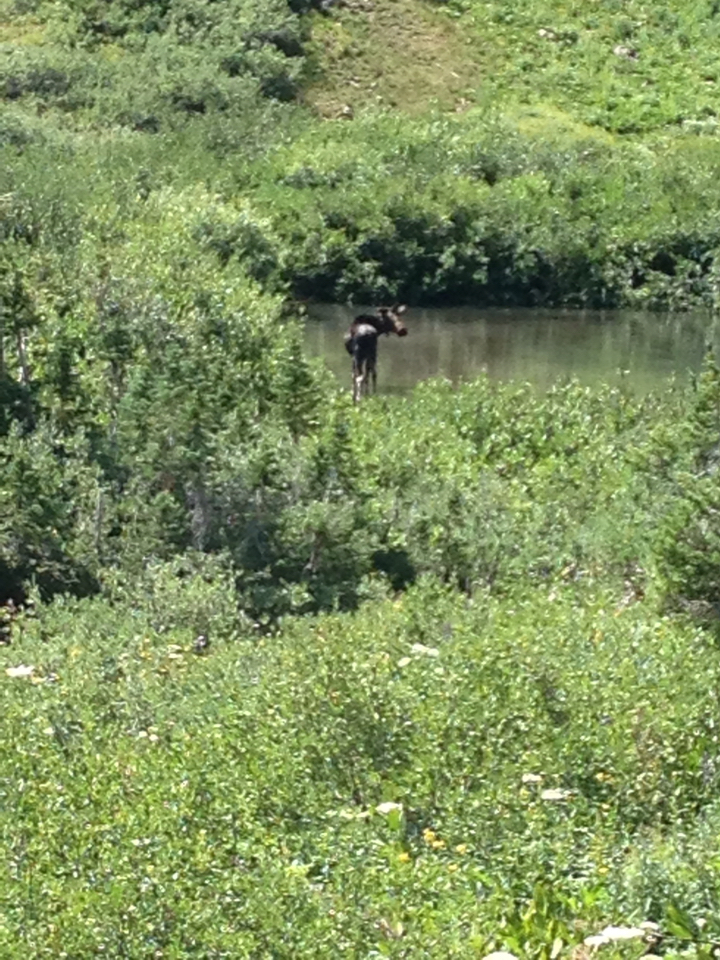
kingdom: Animalia
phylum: Chordata
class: Mammalia
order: Artiodactyla
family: Cervidae
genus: Alces
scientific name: Alces alces
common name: Moose
